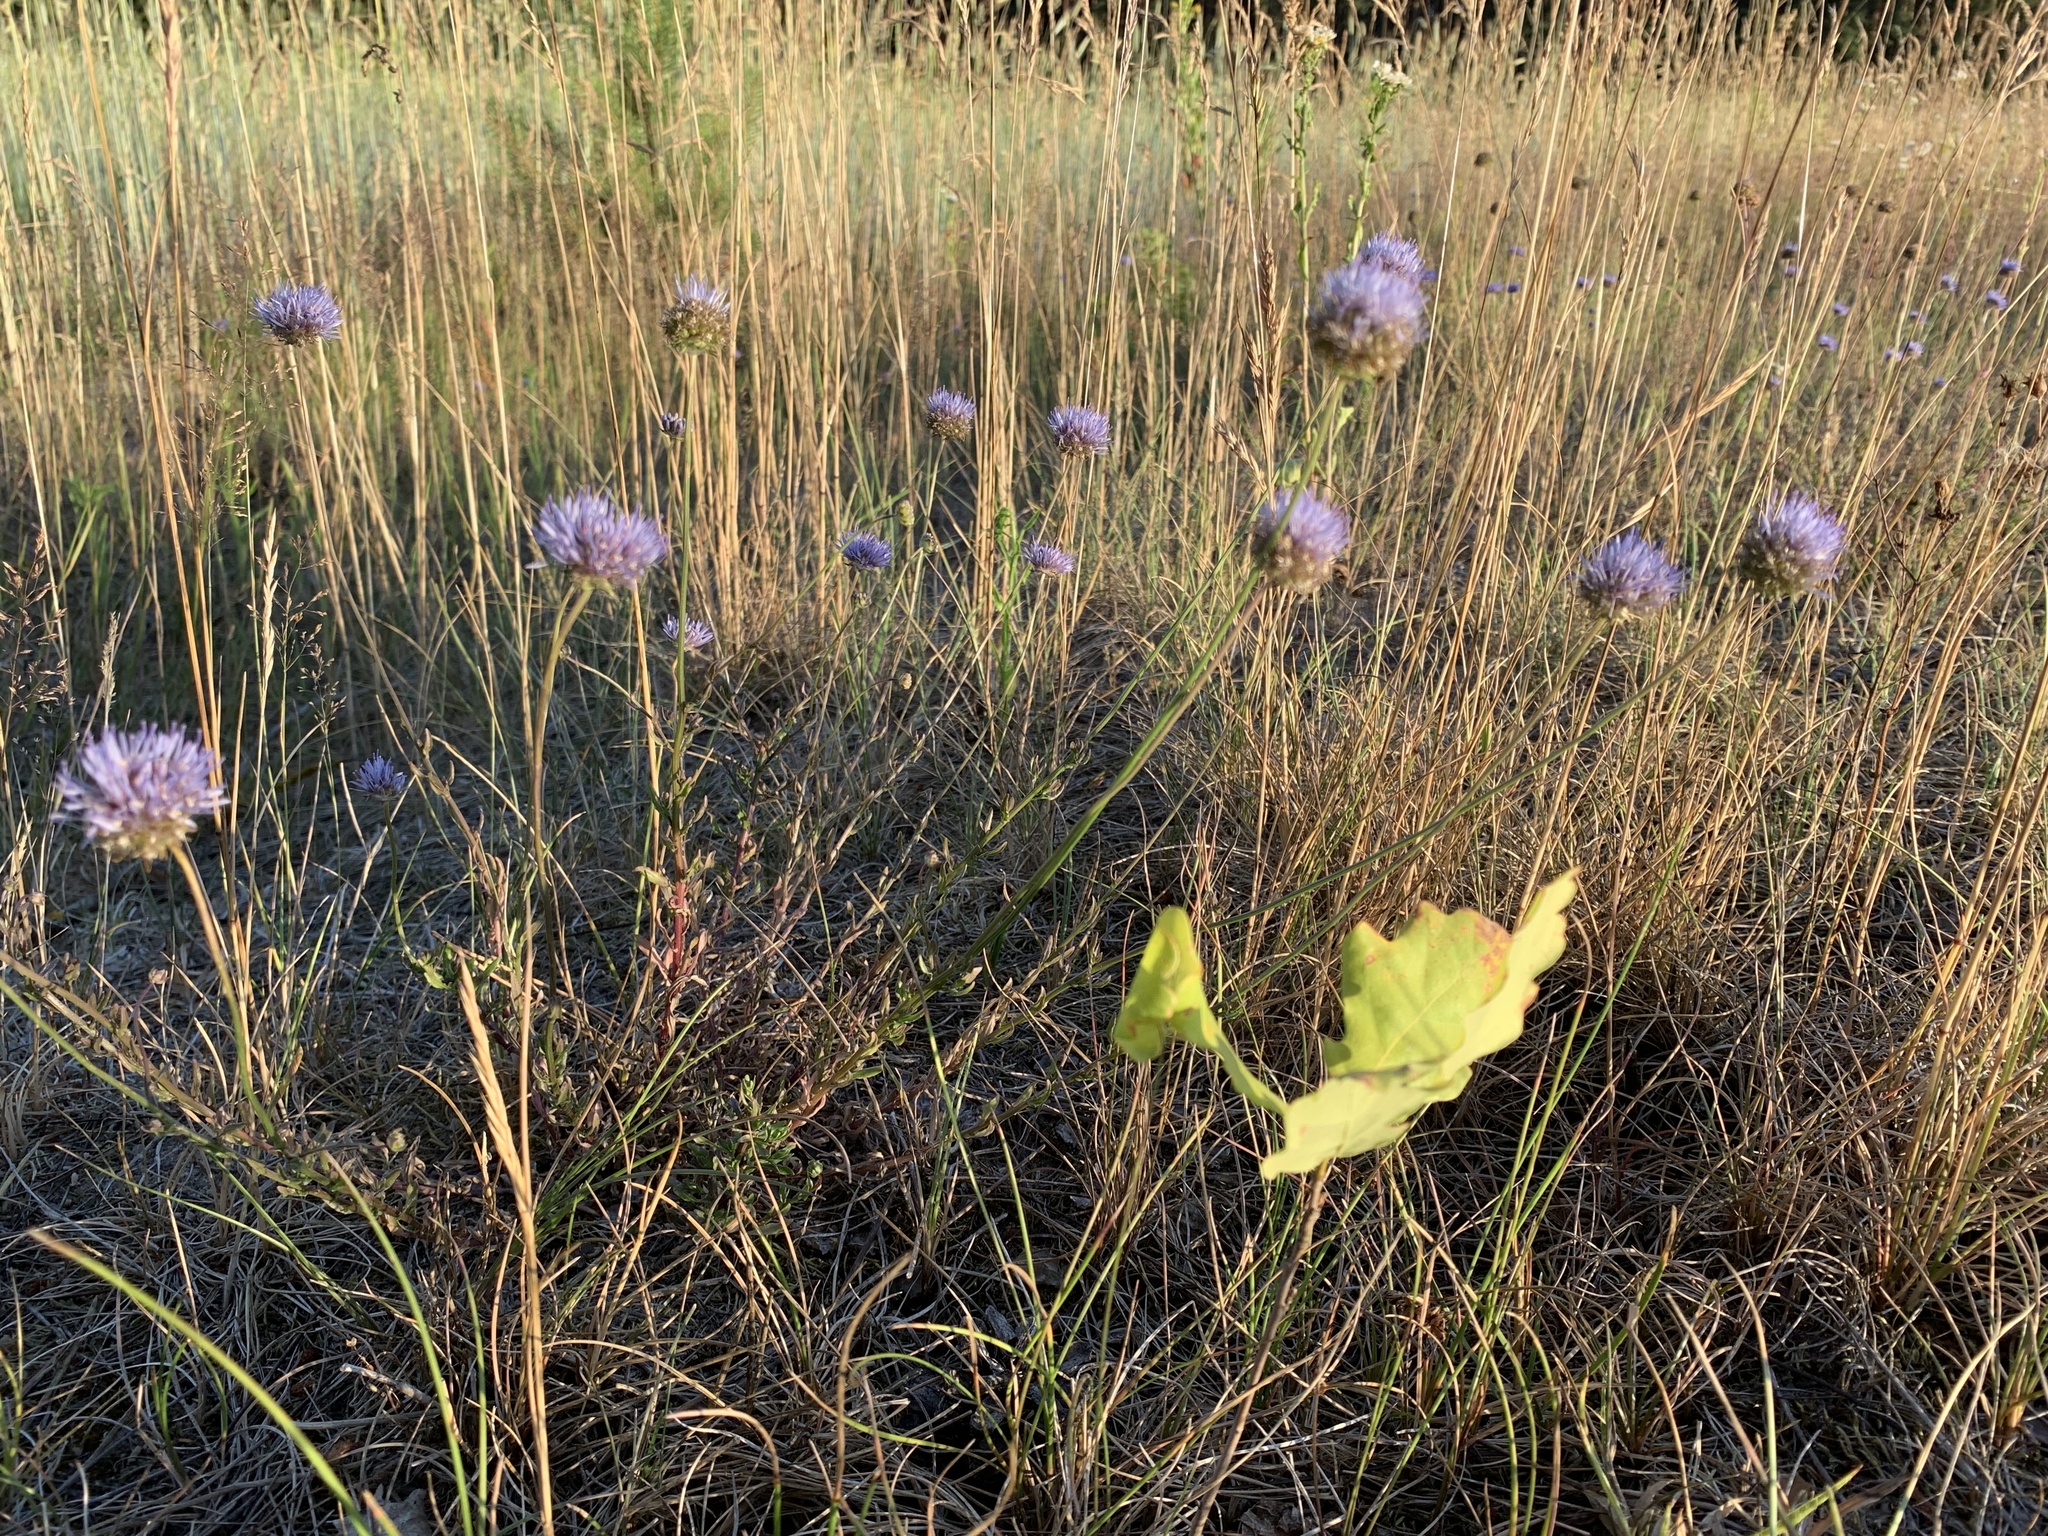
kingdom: Plantae
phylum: Tracheophyta
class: Magnoliopsida
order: Asterales
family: Campanulaceae
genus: Jasione
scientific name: Jasione montana
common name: Sheep's-bit
